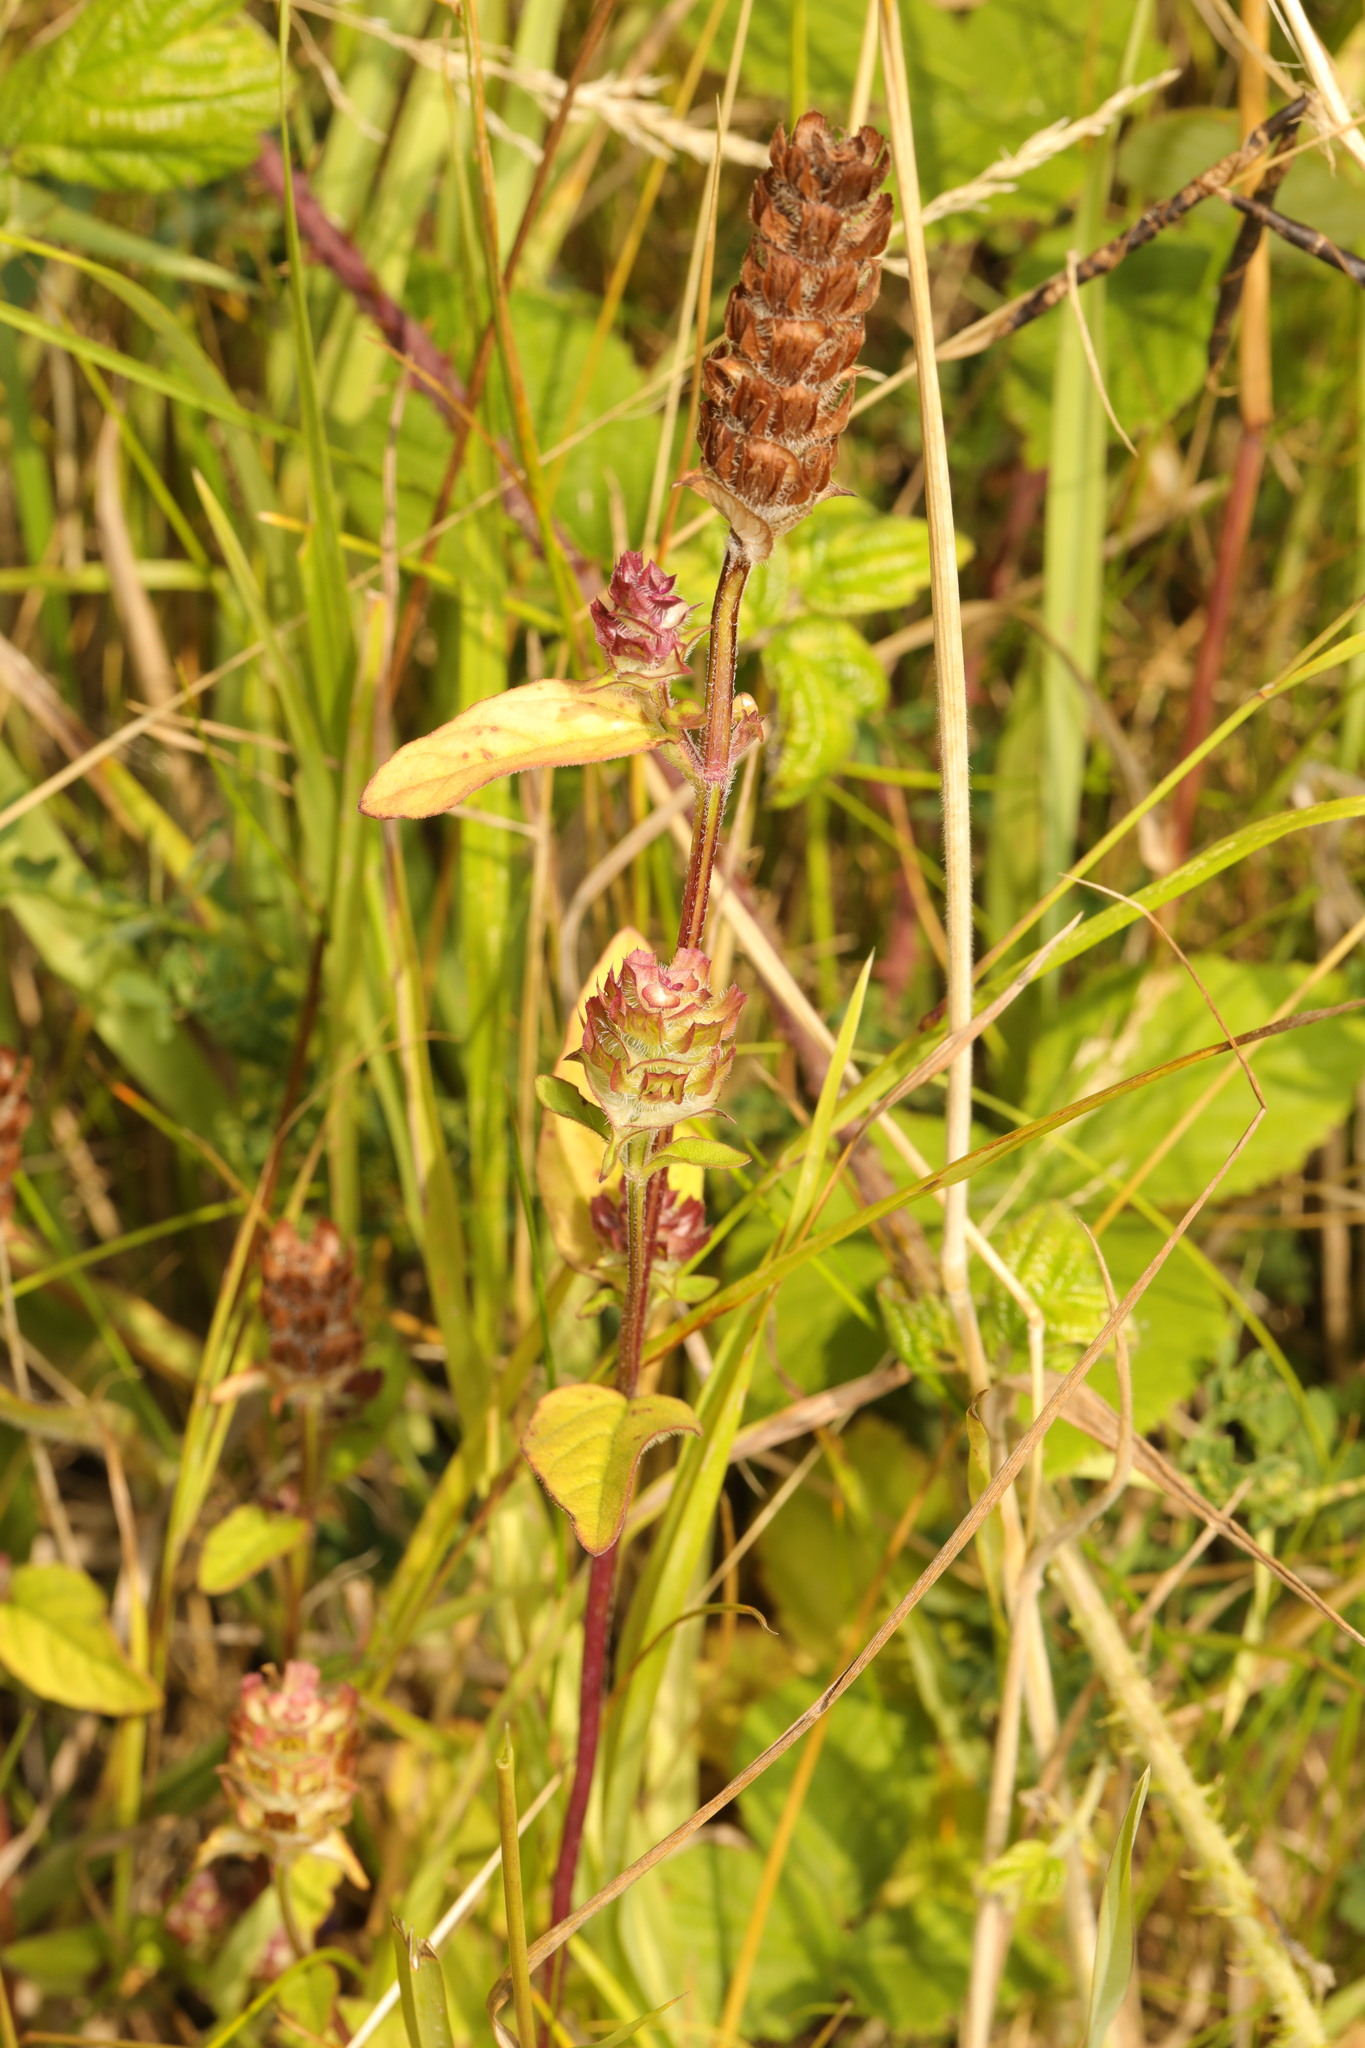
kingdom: Plantae
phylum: Tracheophyta
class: Magnoliopsida
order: Lamiales
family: Lamiaceae
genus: Prunella
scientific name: Prunella vulgaris
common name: Heal-all
